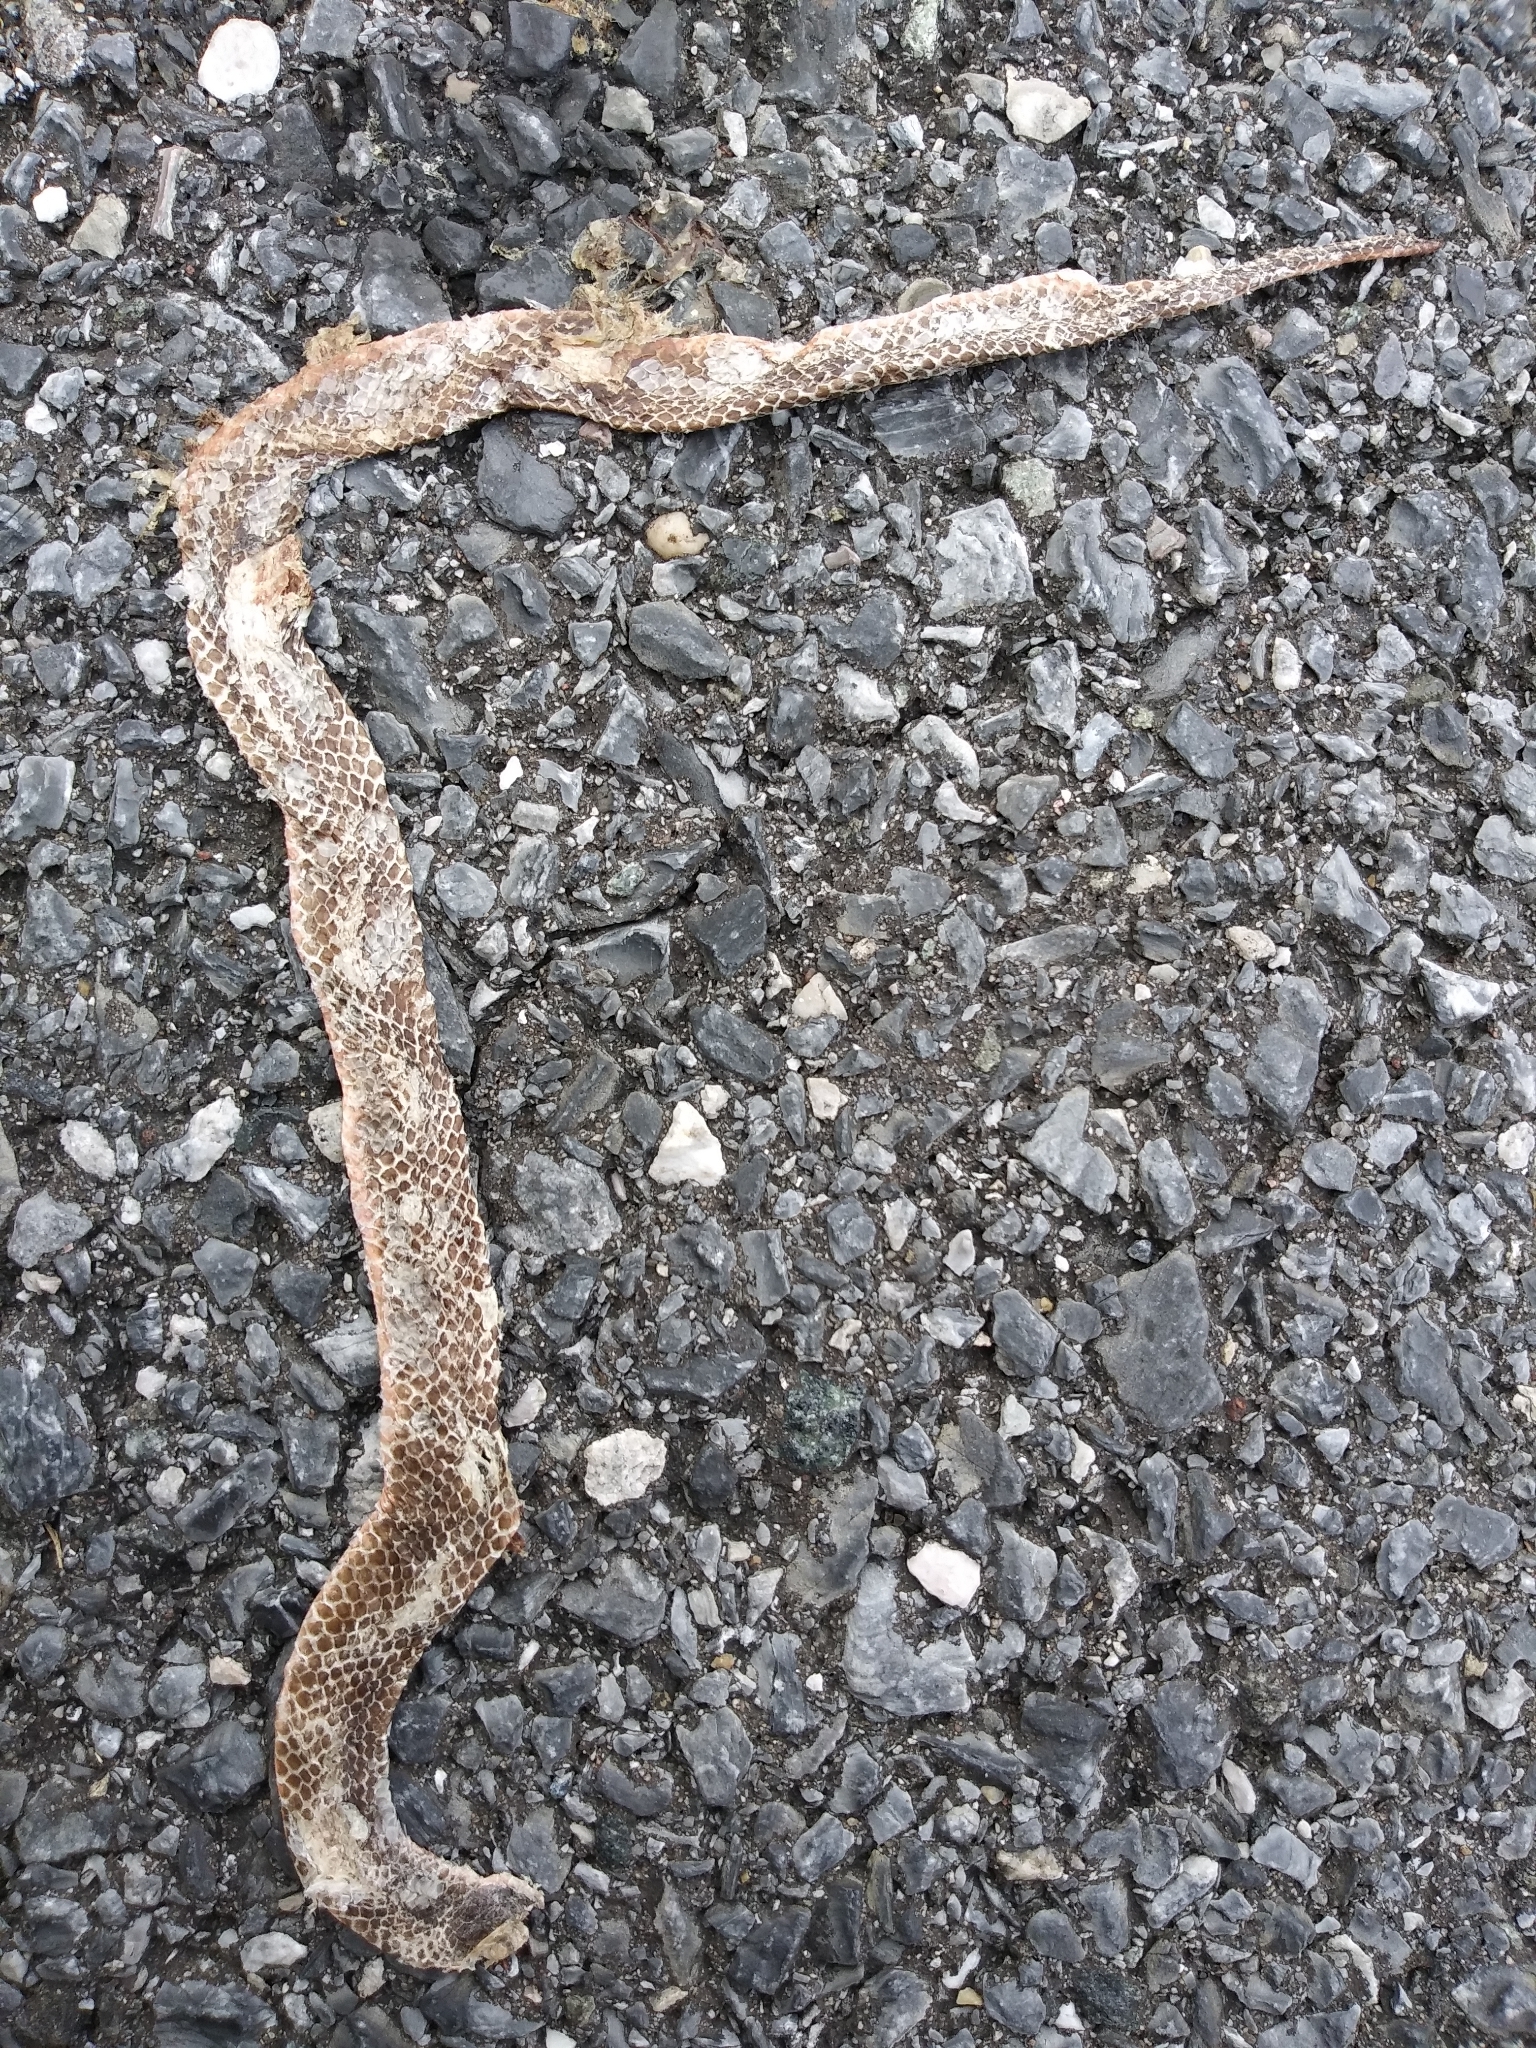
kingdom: Animalia
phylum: Chordata
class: Squamata
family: Colubridae
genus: Carphophis
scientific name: Carphophis amoenus
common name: Eastern worm snake
